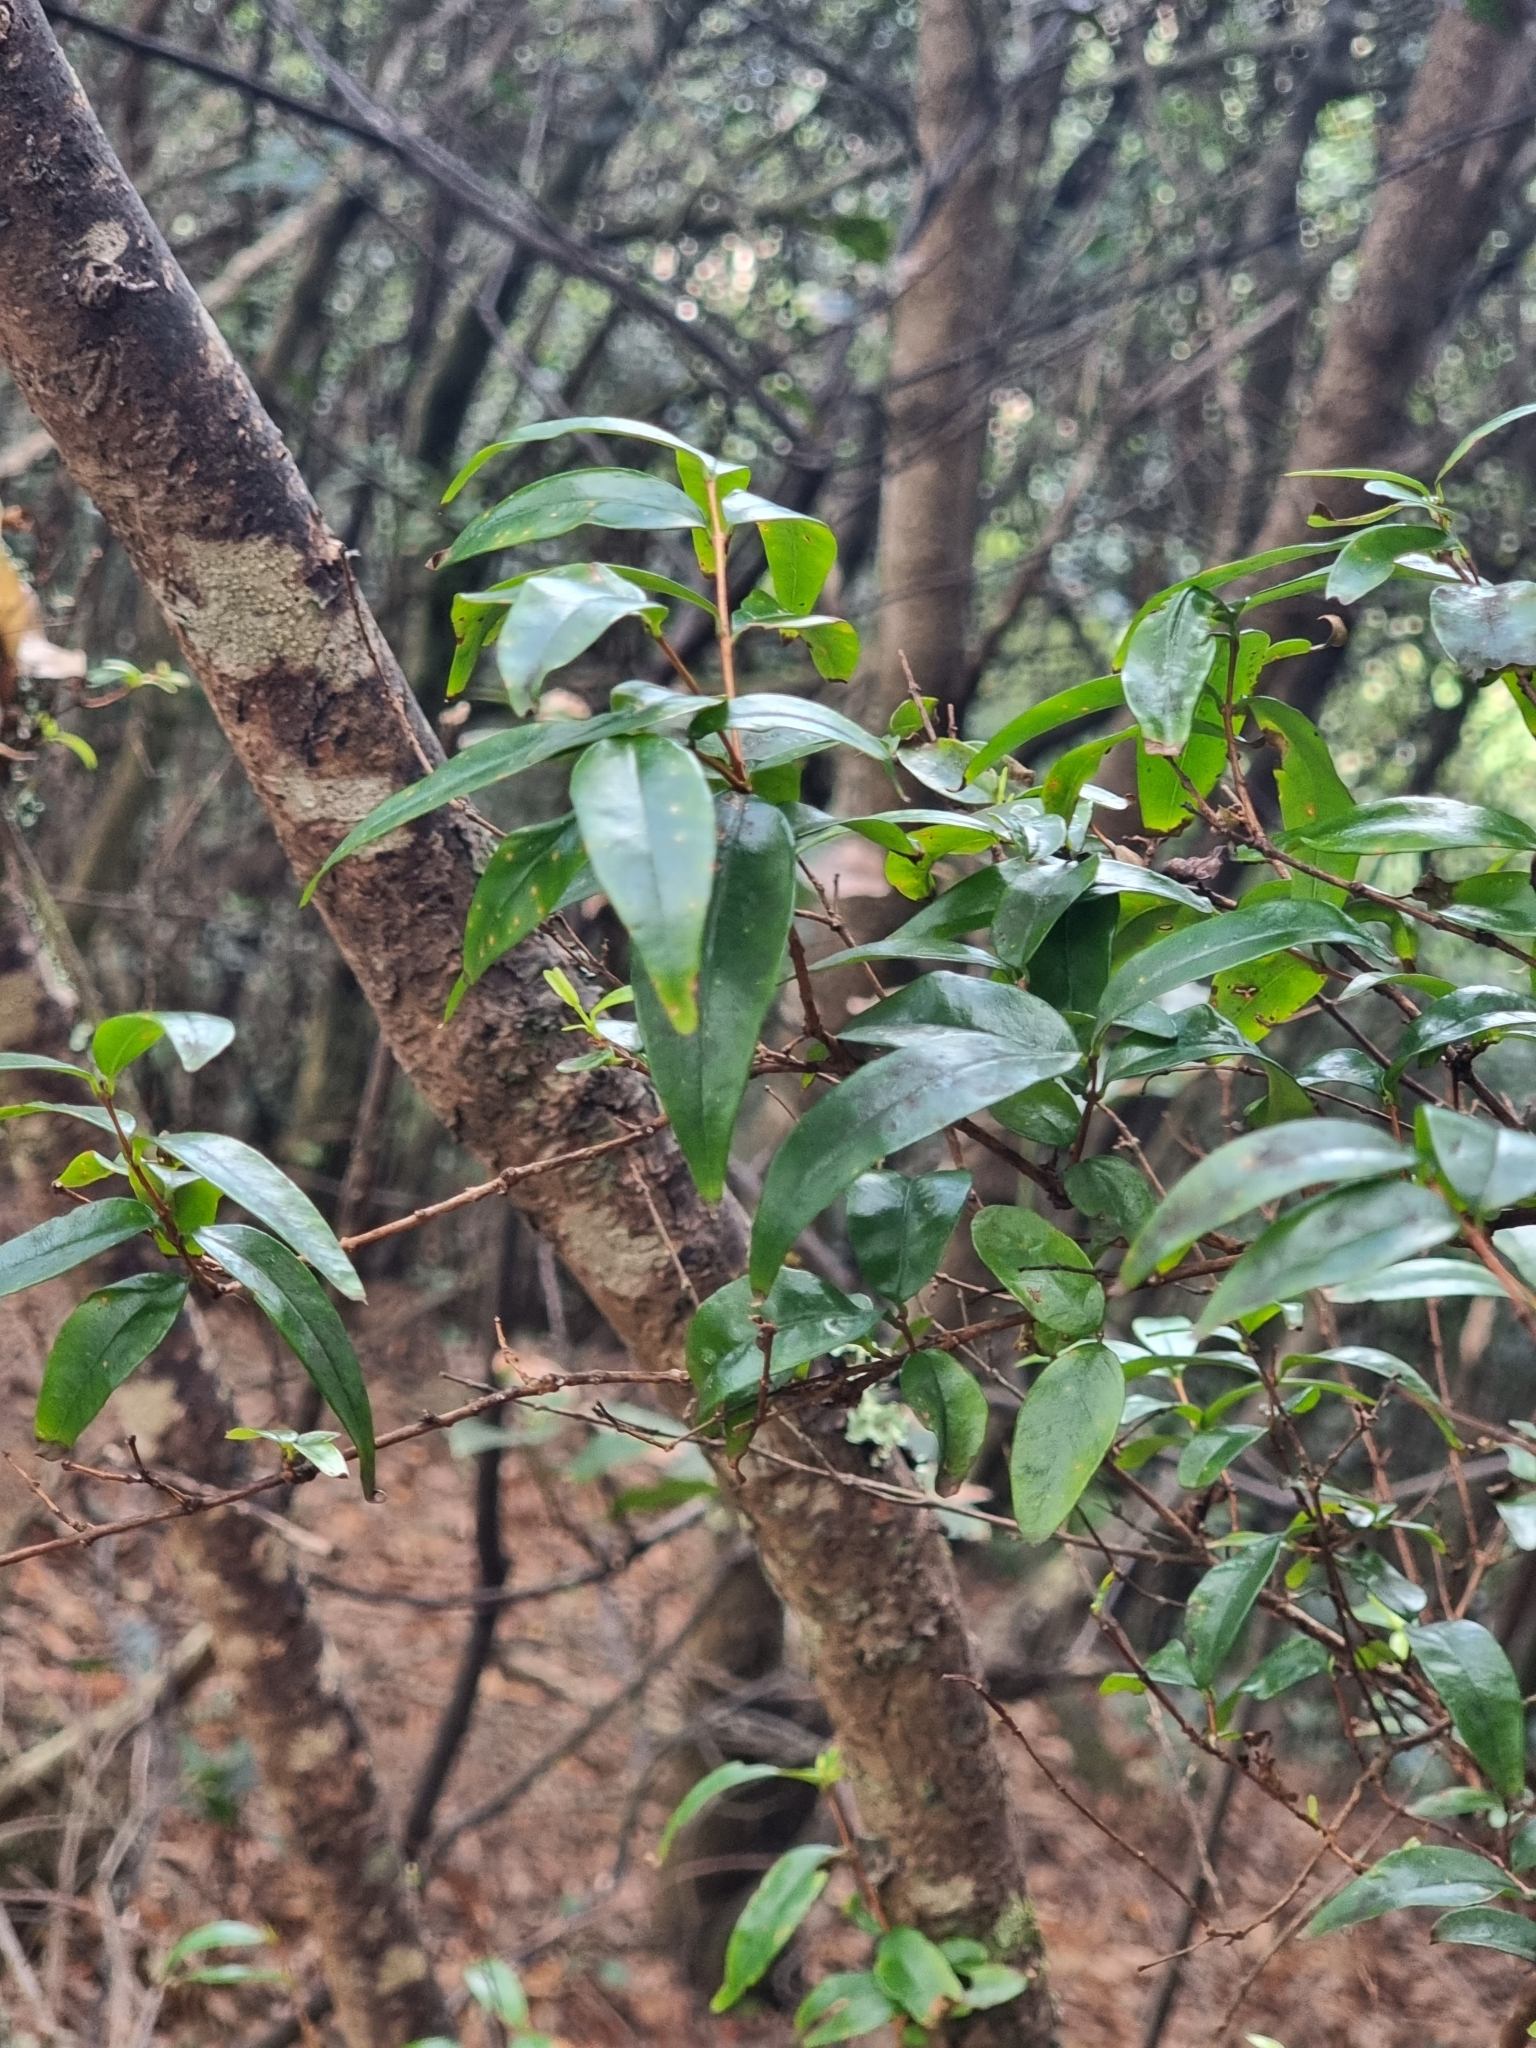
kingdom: Plantae
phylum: Tracheophyta
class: Magnoliopsida
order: Myrtales
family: Myrtaceae
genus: Myrtus
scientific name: Myrtus communis
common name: Myrtle
